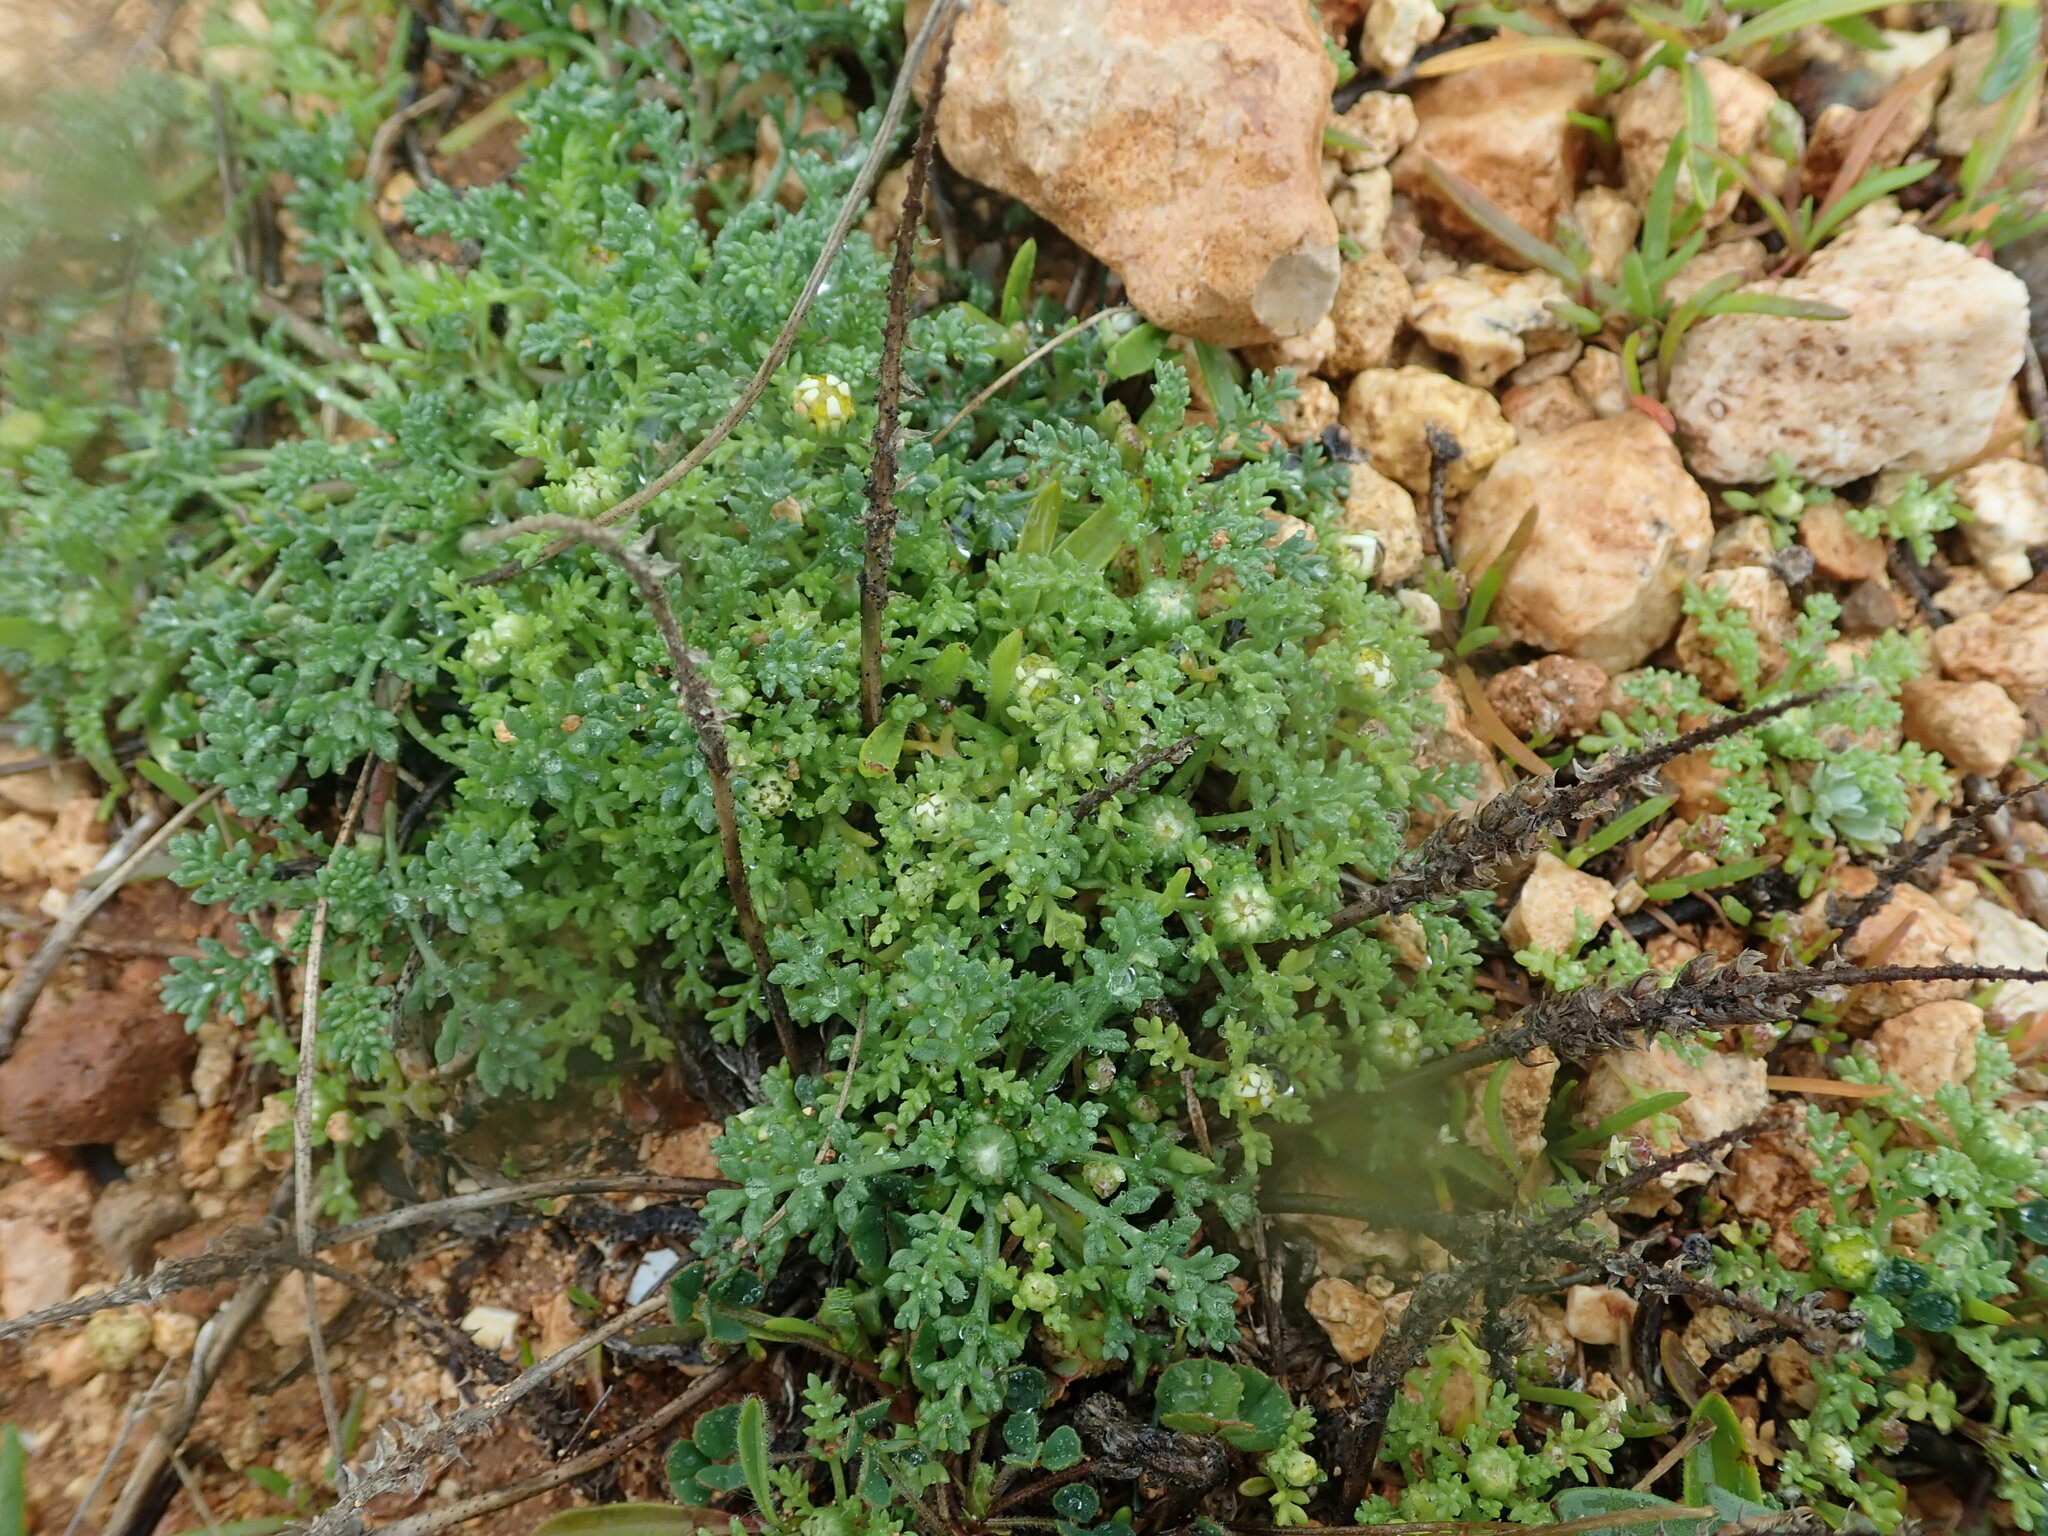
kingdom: Plantae
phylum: Tracheophyta
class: Magnoliopsida
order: Asterales
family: Asteraceae
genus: Anthemis
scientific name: Anthemis secundiramea
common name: Prostrate chamomile
